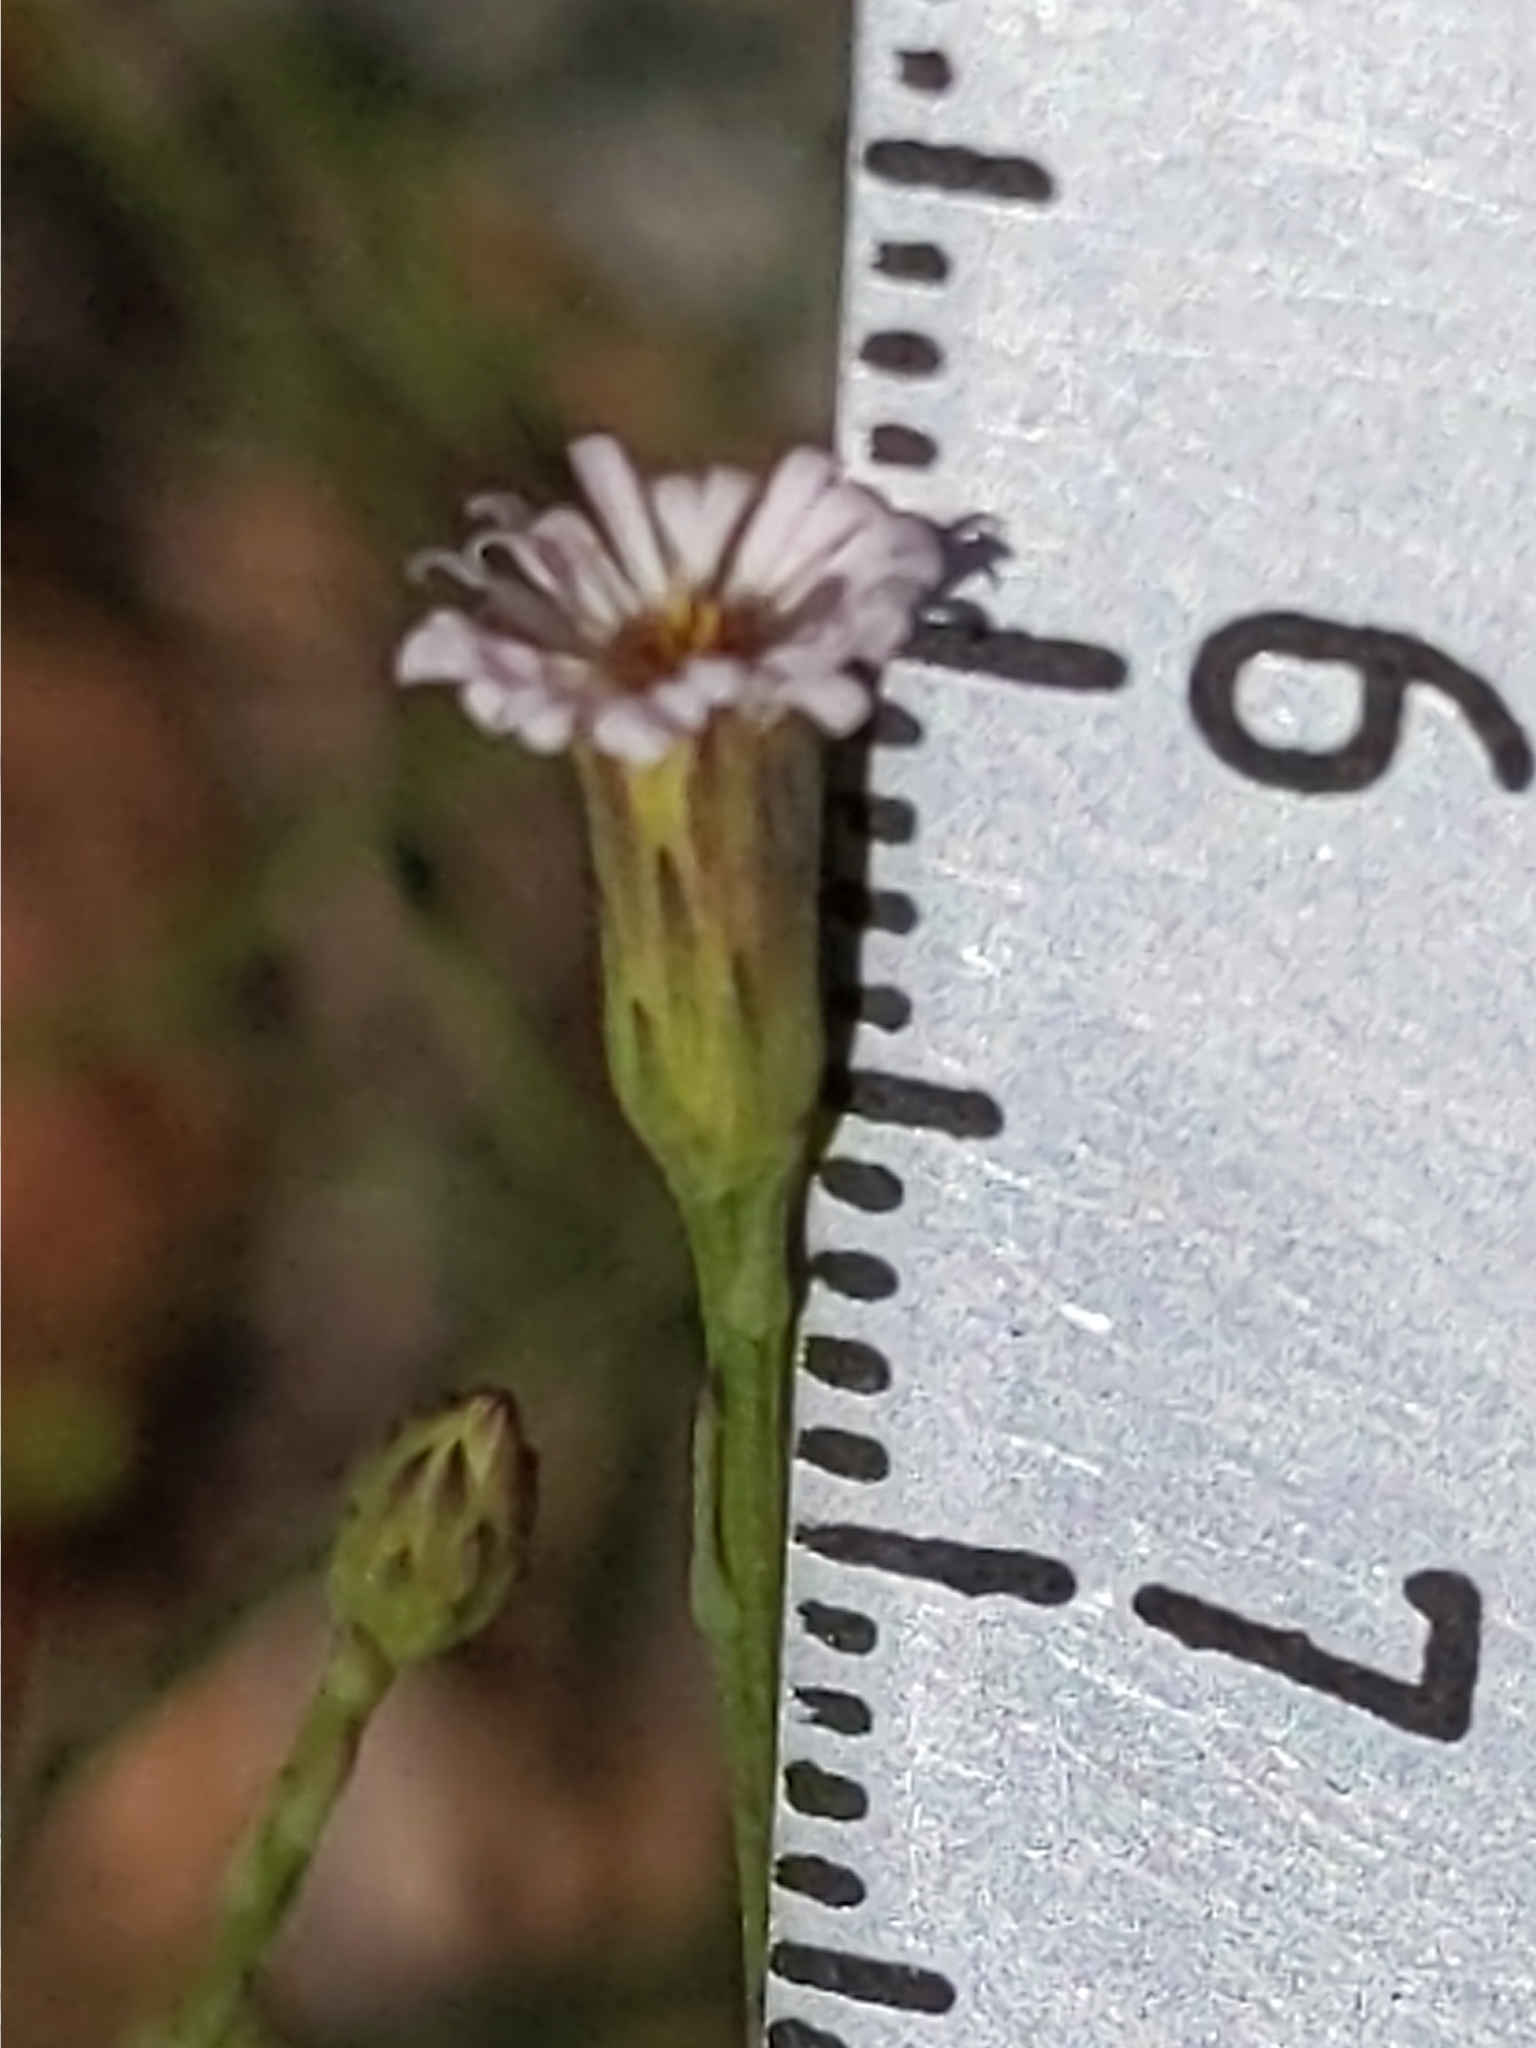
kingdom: Plantae
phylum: Tracheophyta
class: Magnoliopsida
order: Asterales
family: Asteraceae
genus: Symphyotrichum
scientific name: Symphyotrichum subulatum
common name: Annual saltmarsh aster
